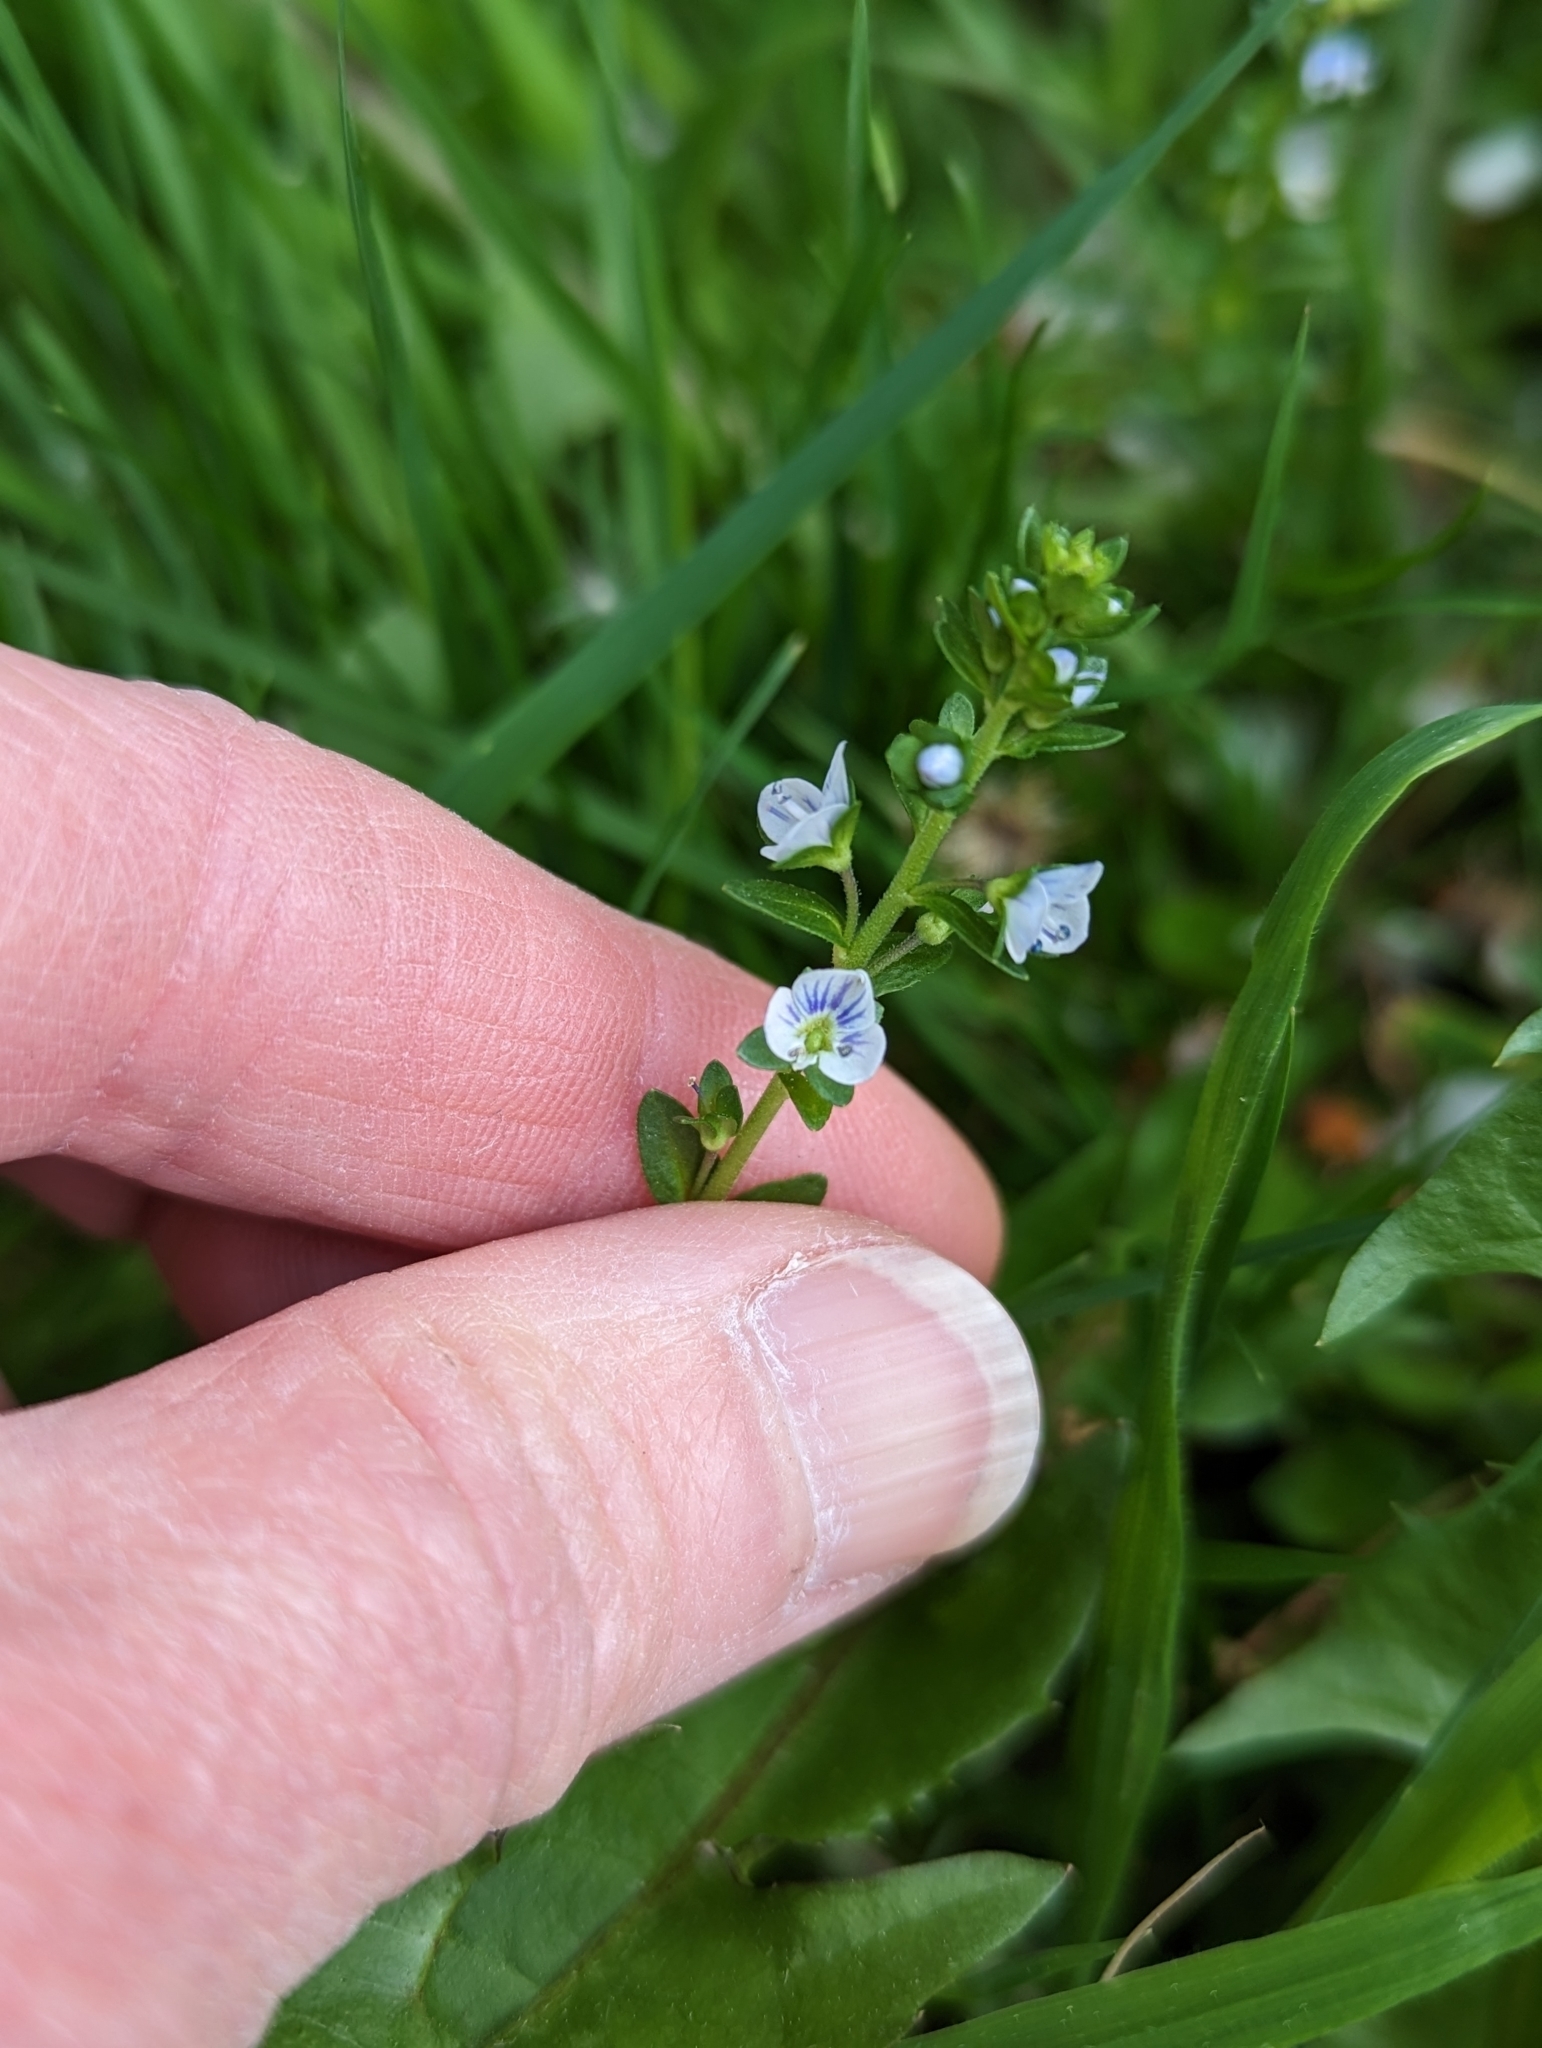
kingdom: Plantae
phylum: Tracheophyta
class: Magnoliopsida
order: Lamiales
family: Plantaginaceae
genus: Veronica
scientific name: Veronica serpyllifolia
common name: Thyme-leaved speedwell
